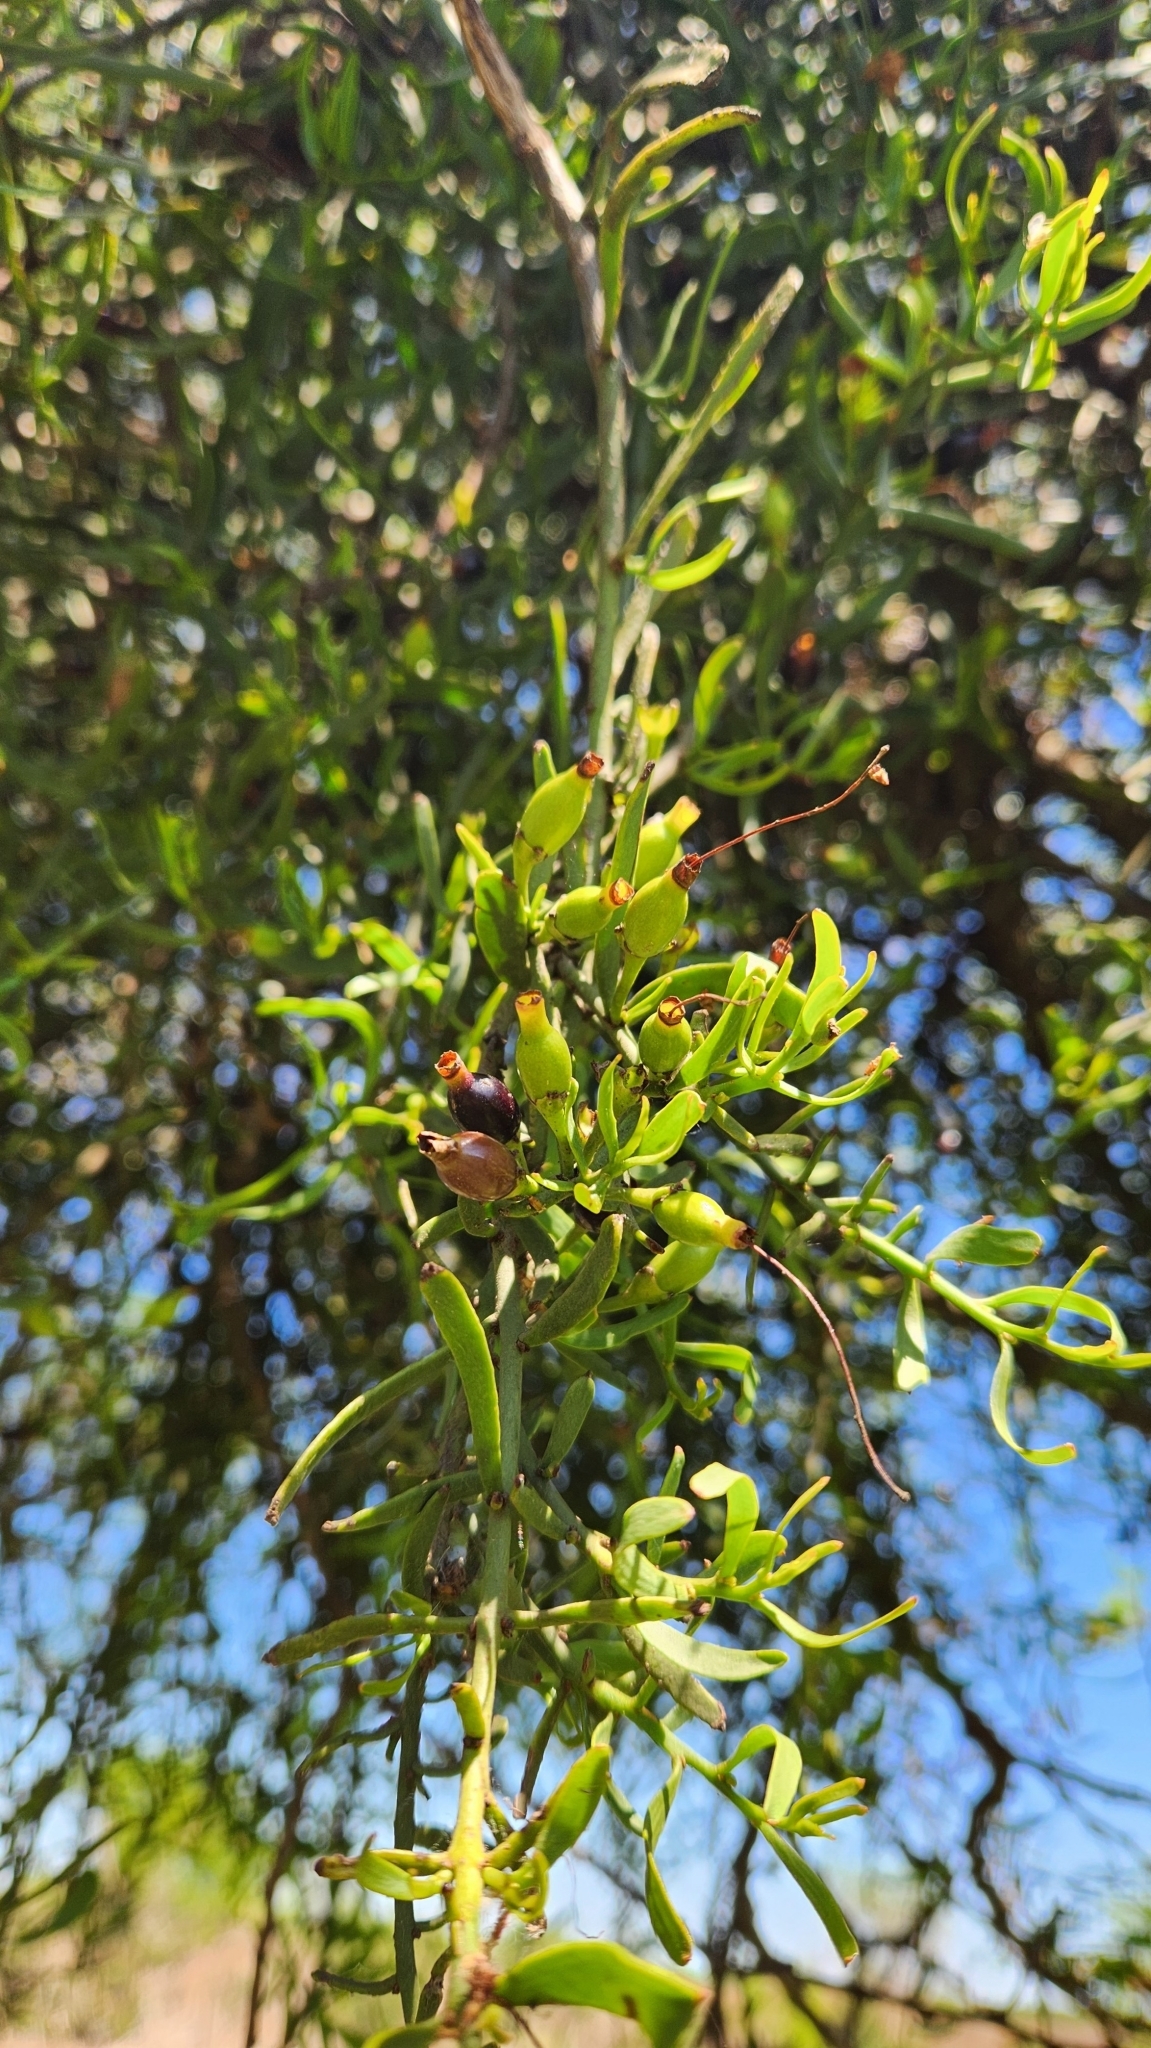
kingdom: Plantae
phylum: Tracheophyta
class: Magnoliopsida
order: Santalales
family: Loranthaceae
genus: Tripodanthus
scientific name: Tripodanthus flagellaris
